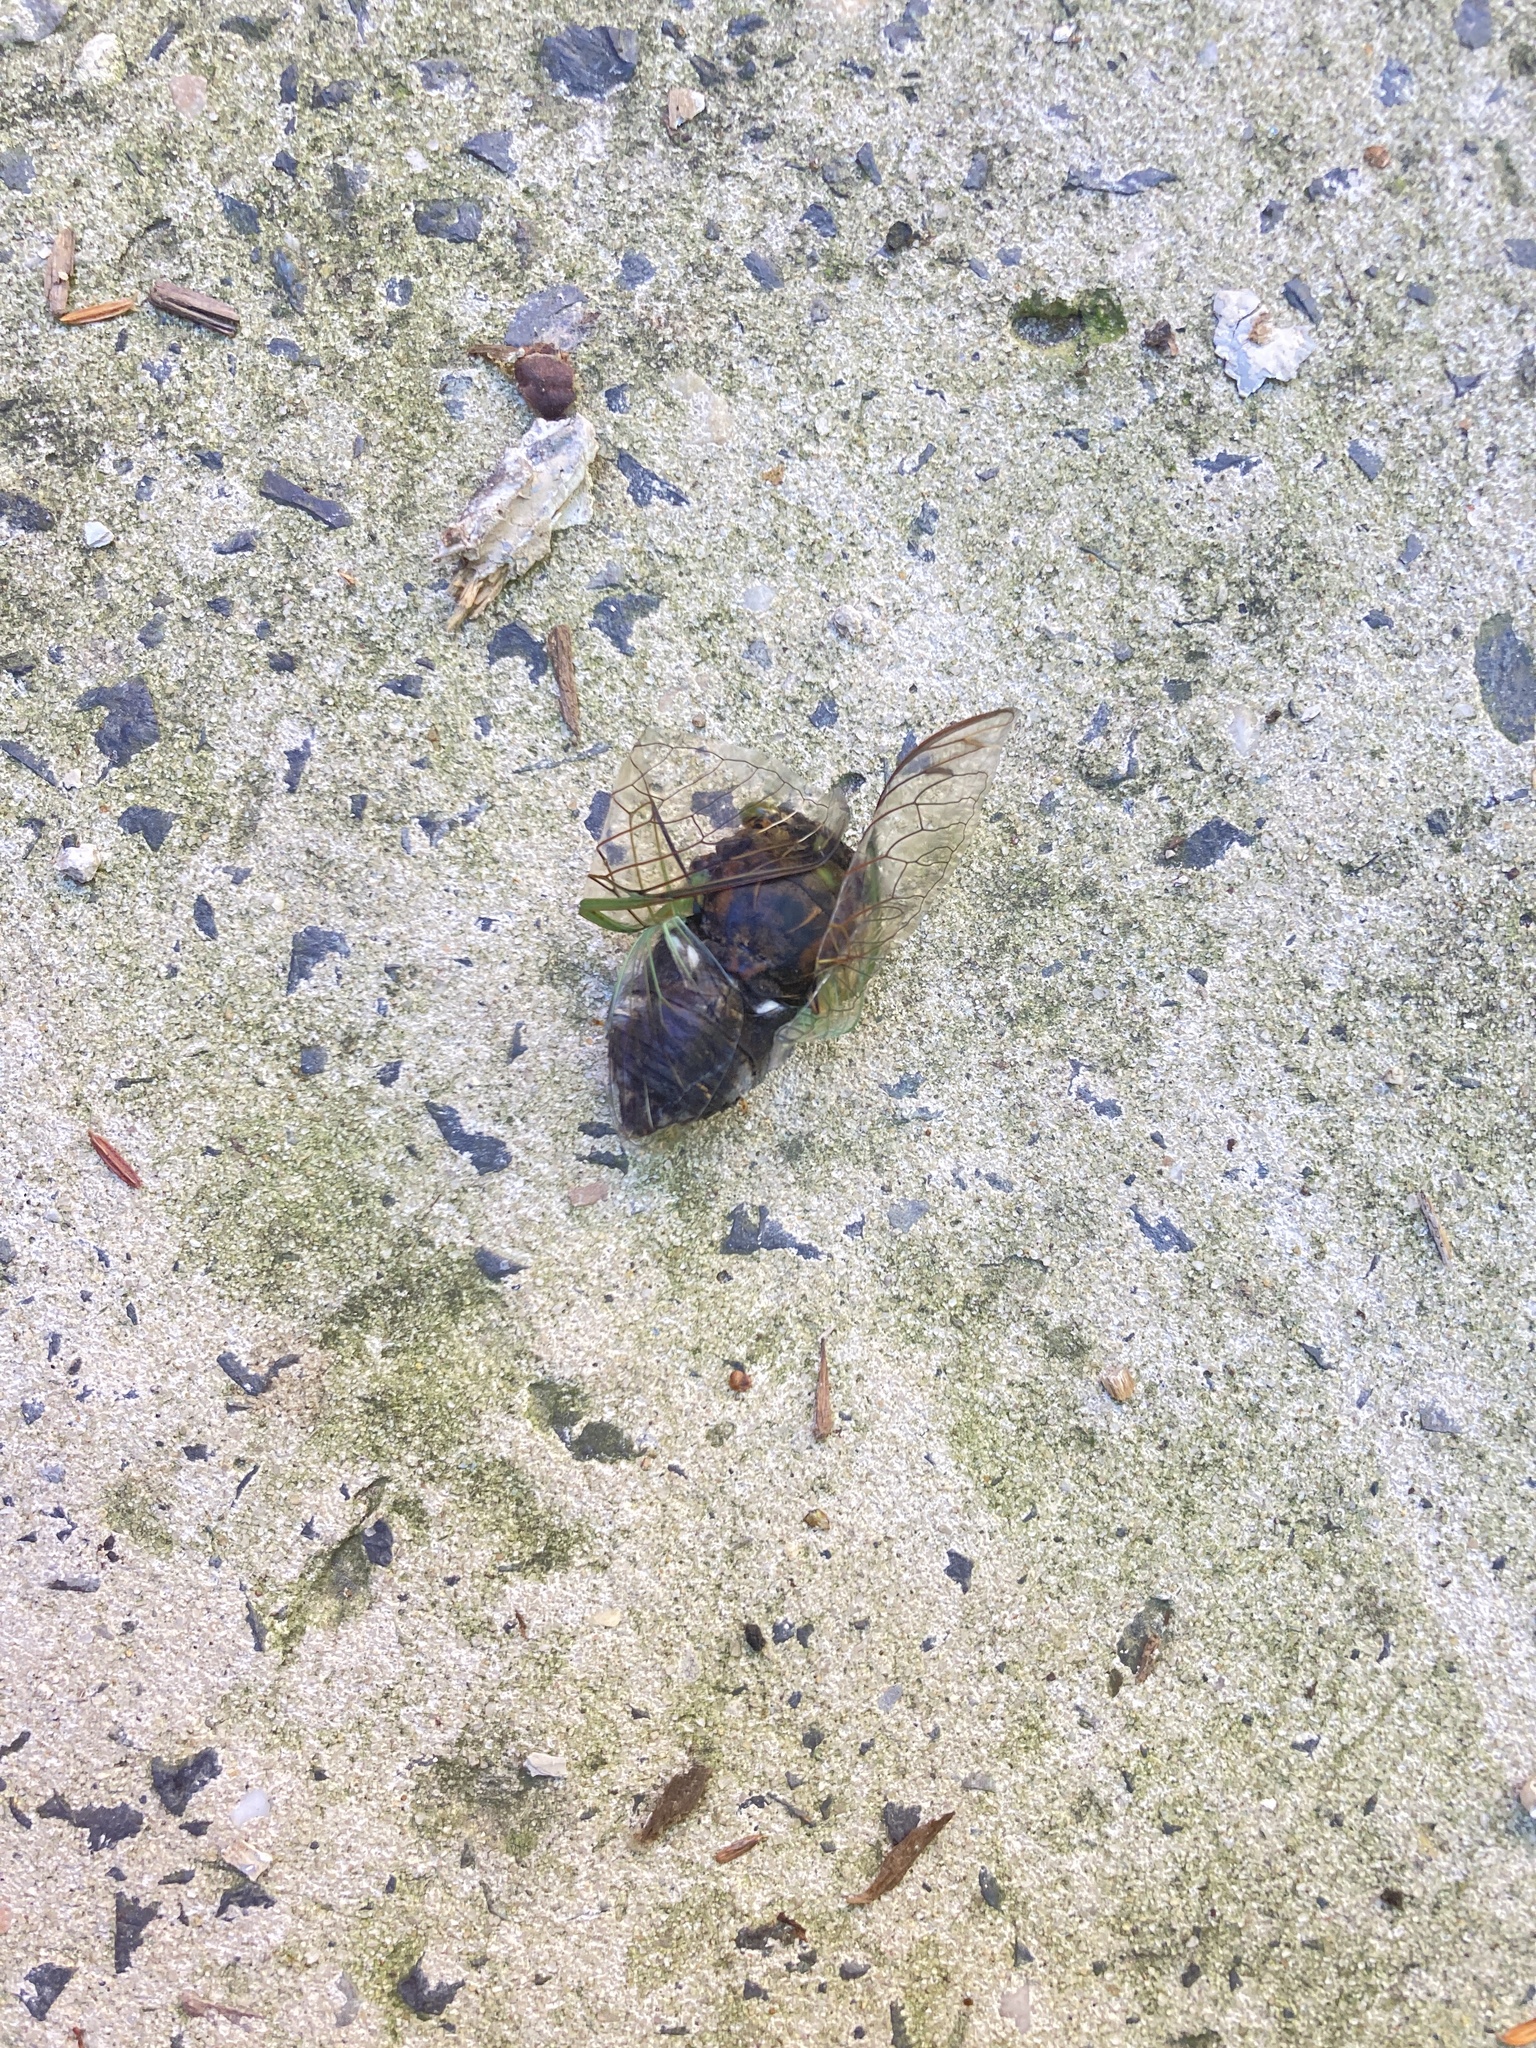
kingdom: Animalia
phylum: Arthropoda
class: Insecta
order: Hemiptera
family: Cicadidae
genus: Neotibicen
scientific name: Neotibicen tibicen
